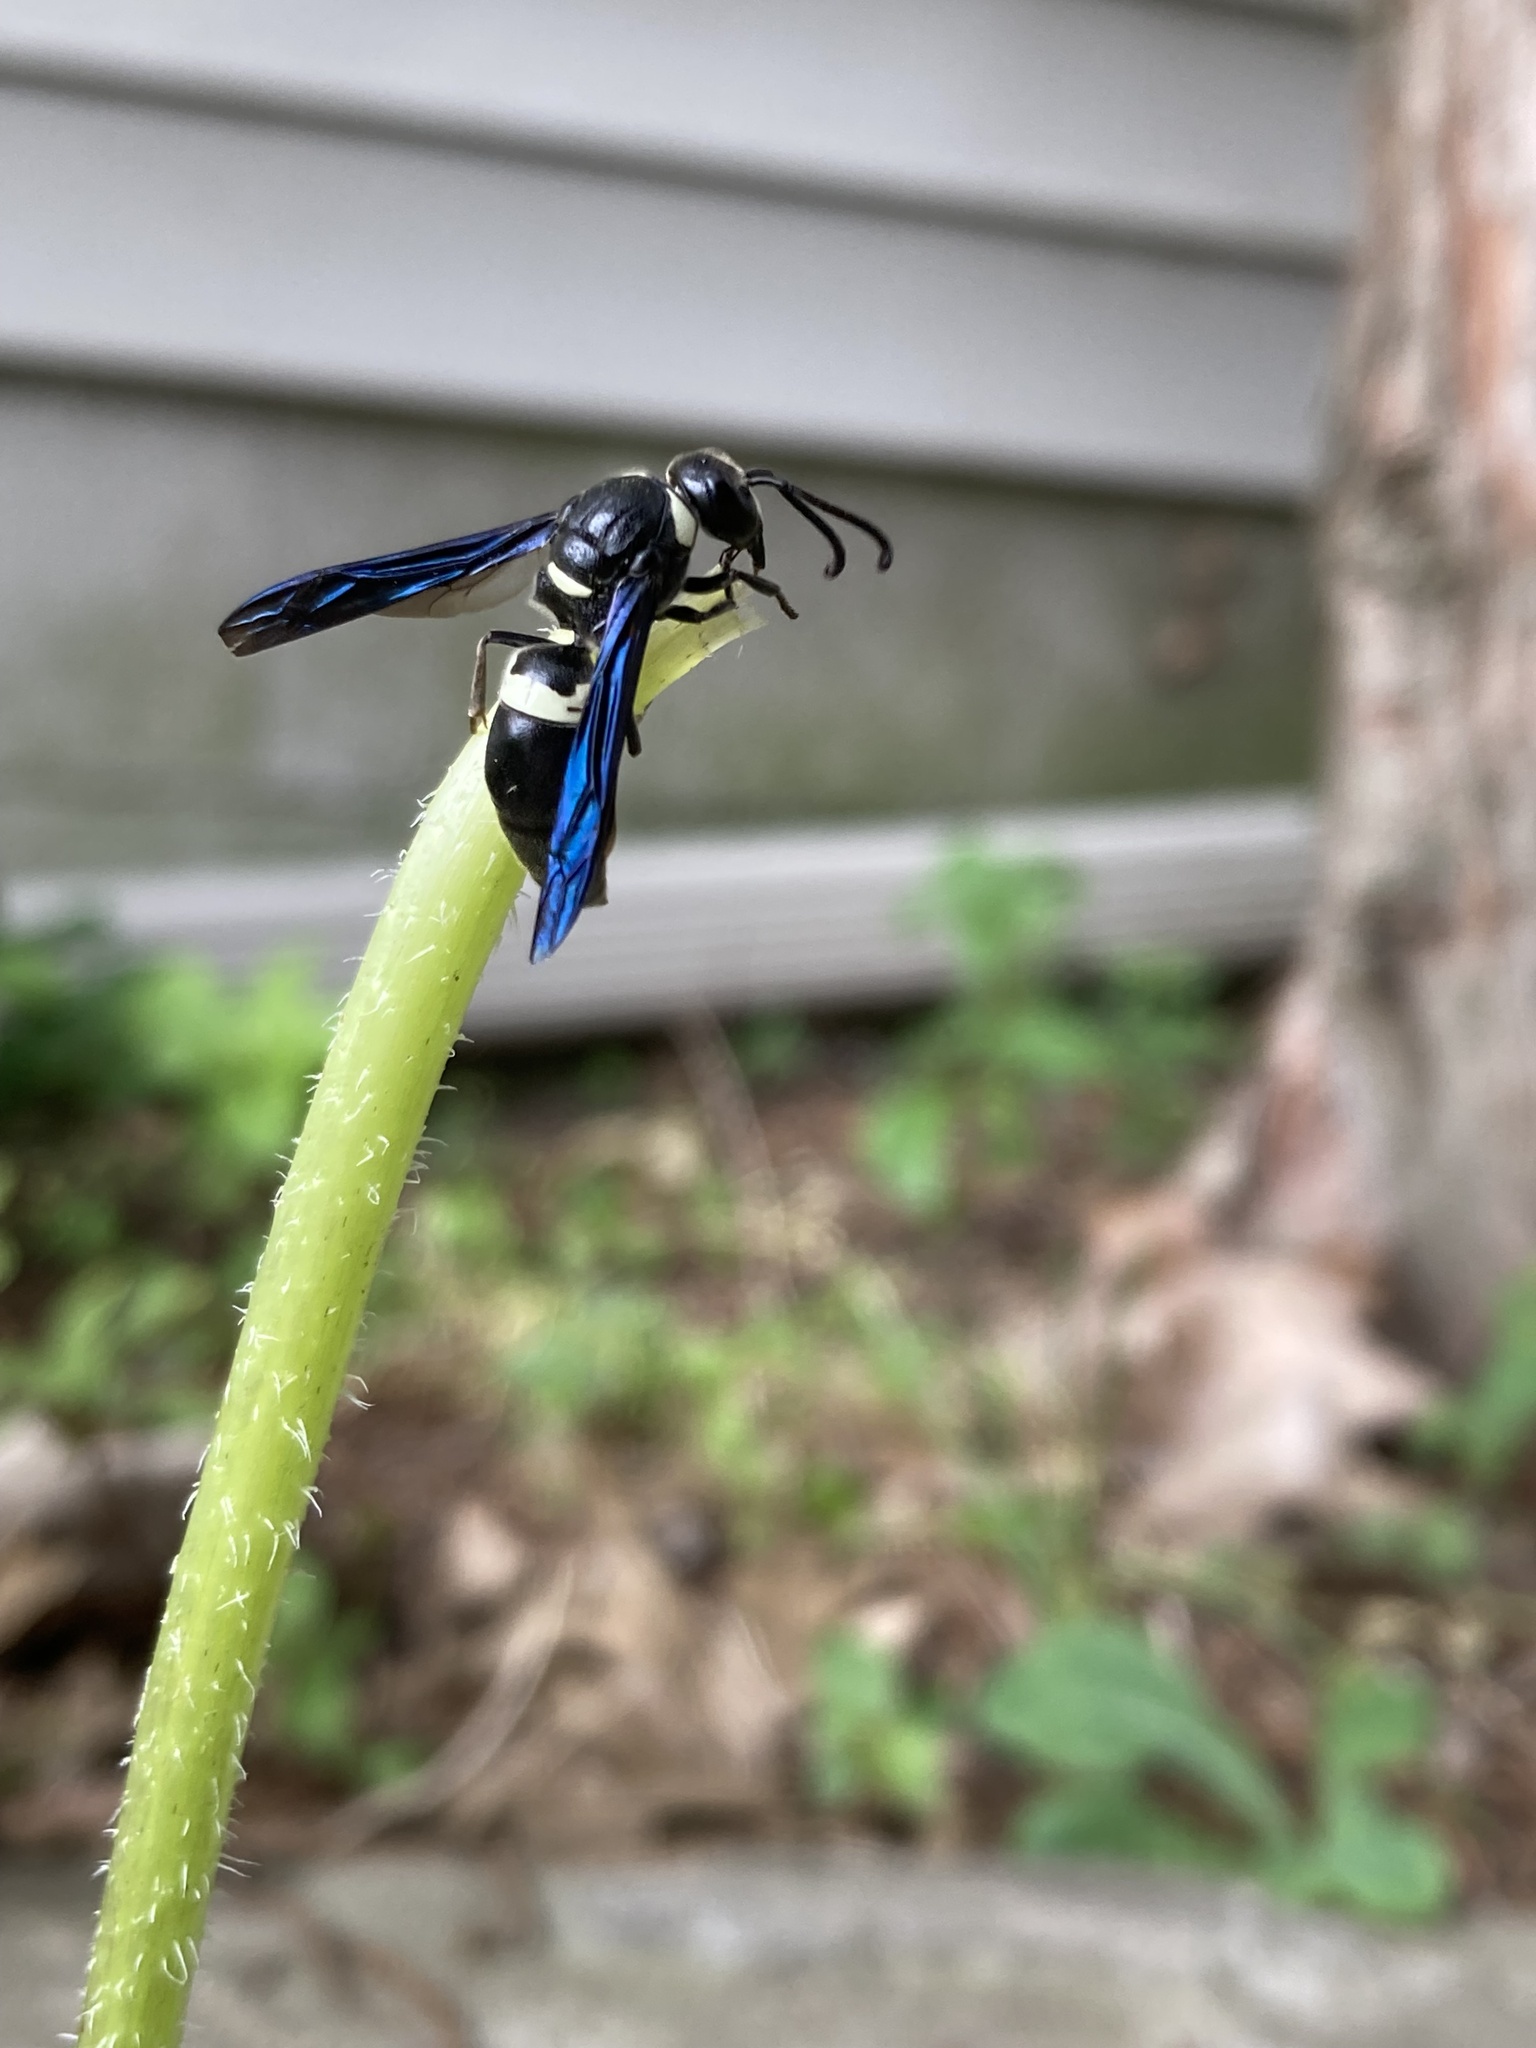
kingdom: Animalia
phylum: Arthropoda
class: Insecta
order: Hymenoptera
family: Eumenidae
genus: Monobia
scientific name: Monobia quadridens
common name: Four-toothed mason wasp
